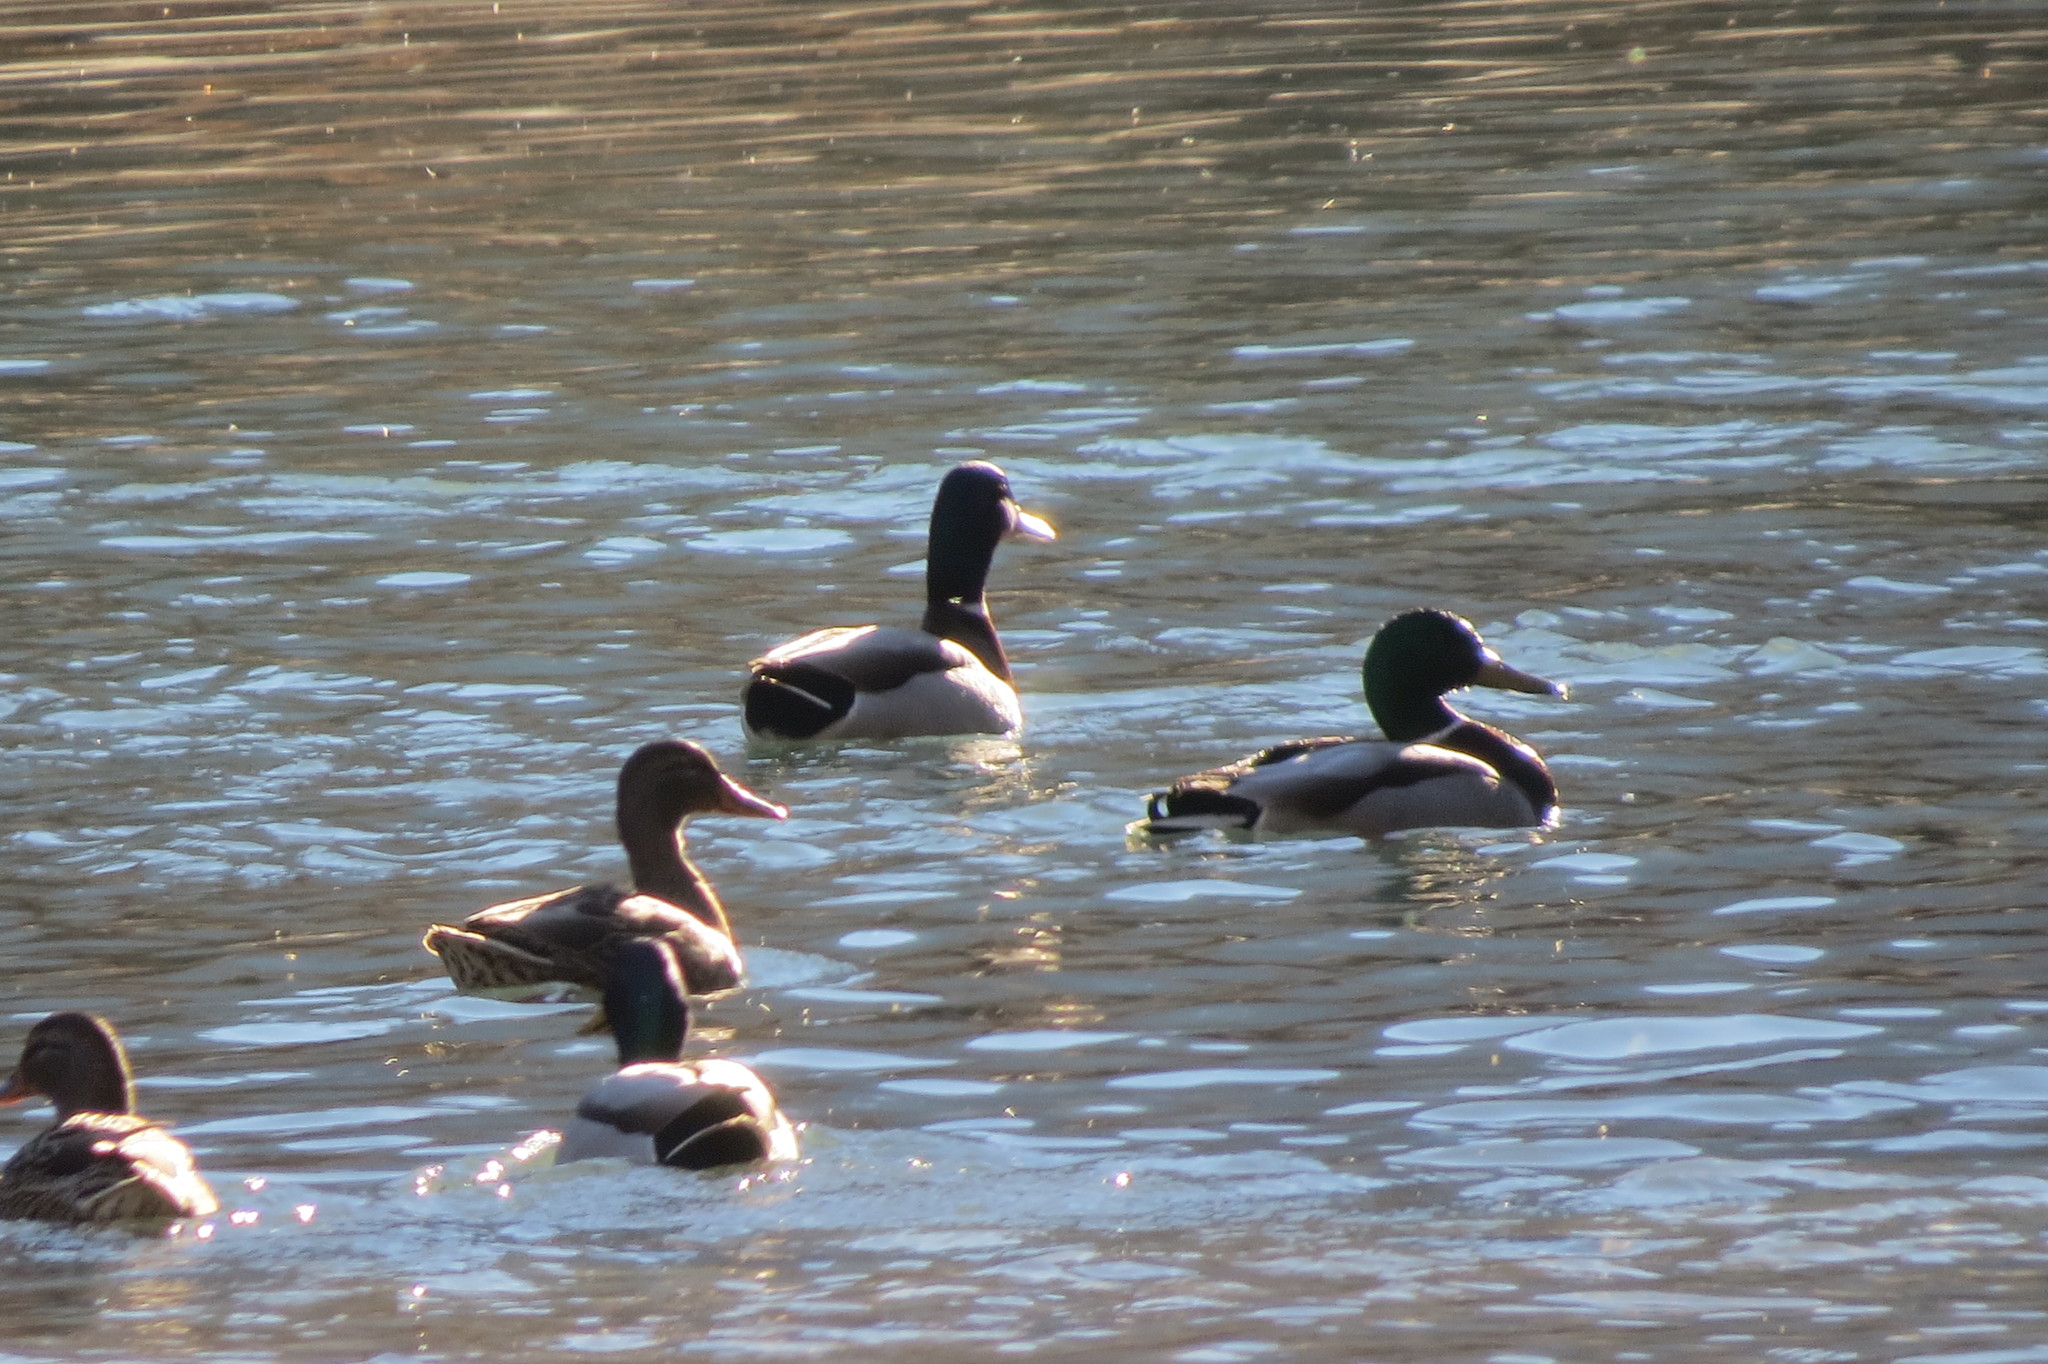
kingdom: Animalia
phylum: Chordata
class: Aves
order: Anseriformes
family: Anatidae
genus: Anas
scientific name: Anas platyrhynchos
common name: Mallard
